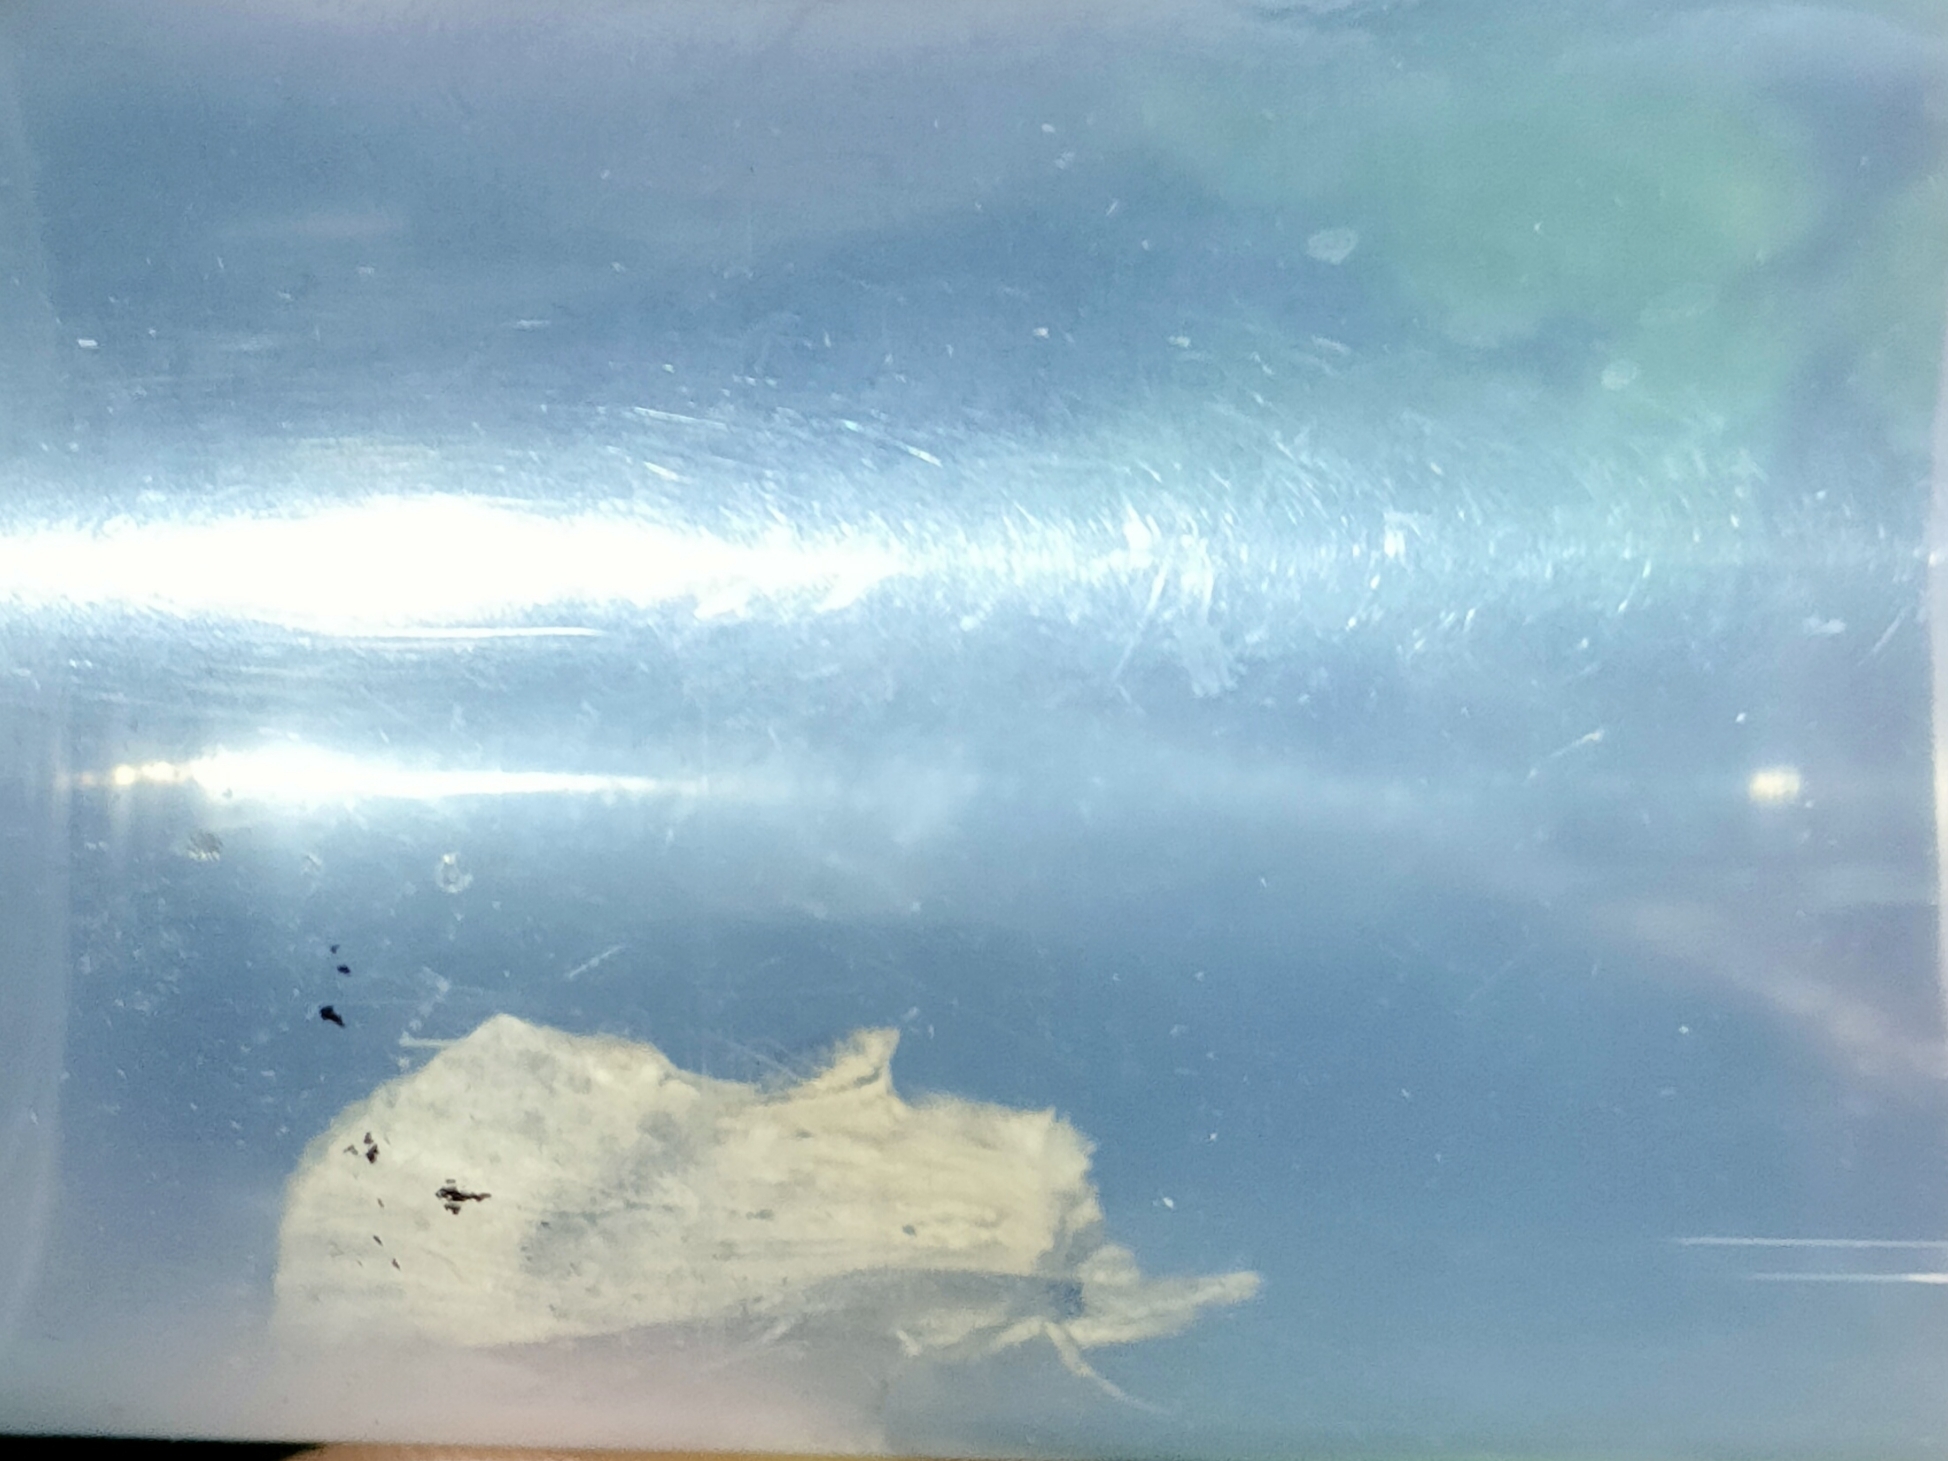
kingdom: Animalia
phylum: Arthropoda
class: Insecta
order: Lepidoptera
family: Notodontidae
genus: Pterostoma
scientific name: Pterostoma palpina
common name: Pale prominent
